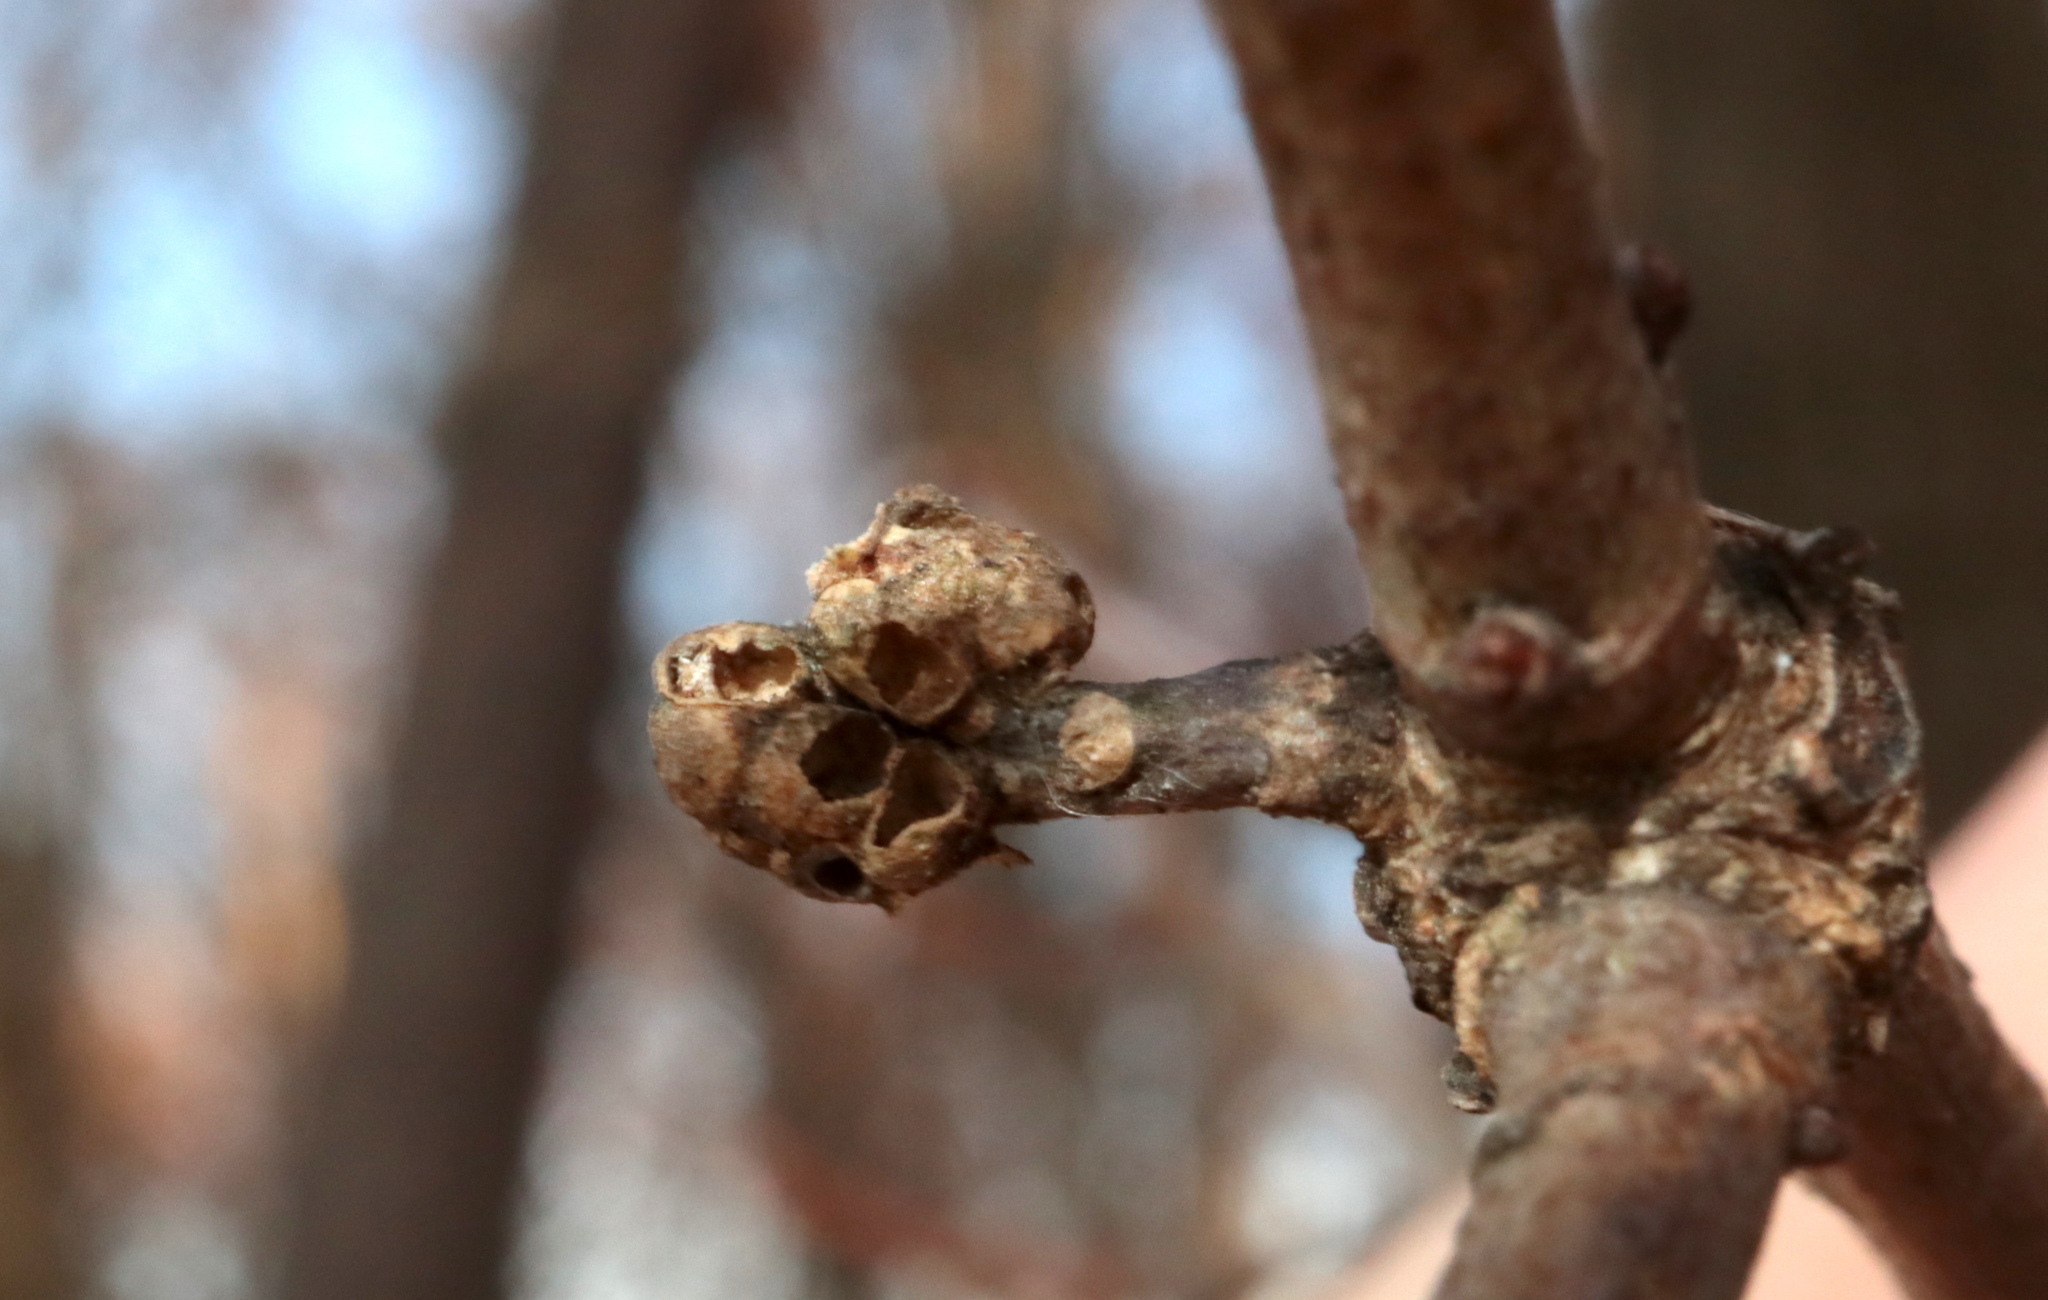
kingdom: Animalia
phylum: Arthropoda
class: Insecta
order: Hymenoptera
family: Cynipidae
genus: Neuroterus
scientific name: Neuroterus minutulus
